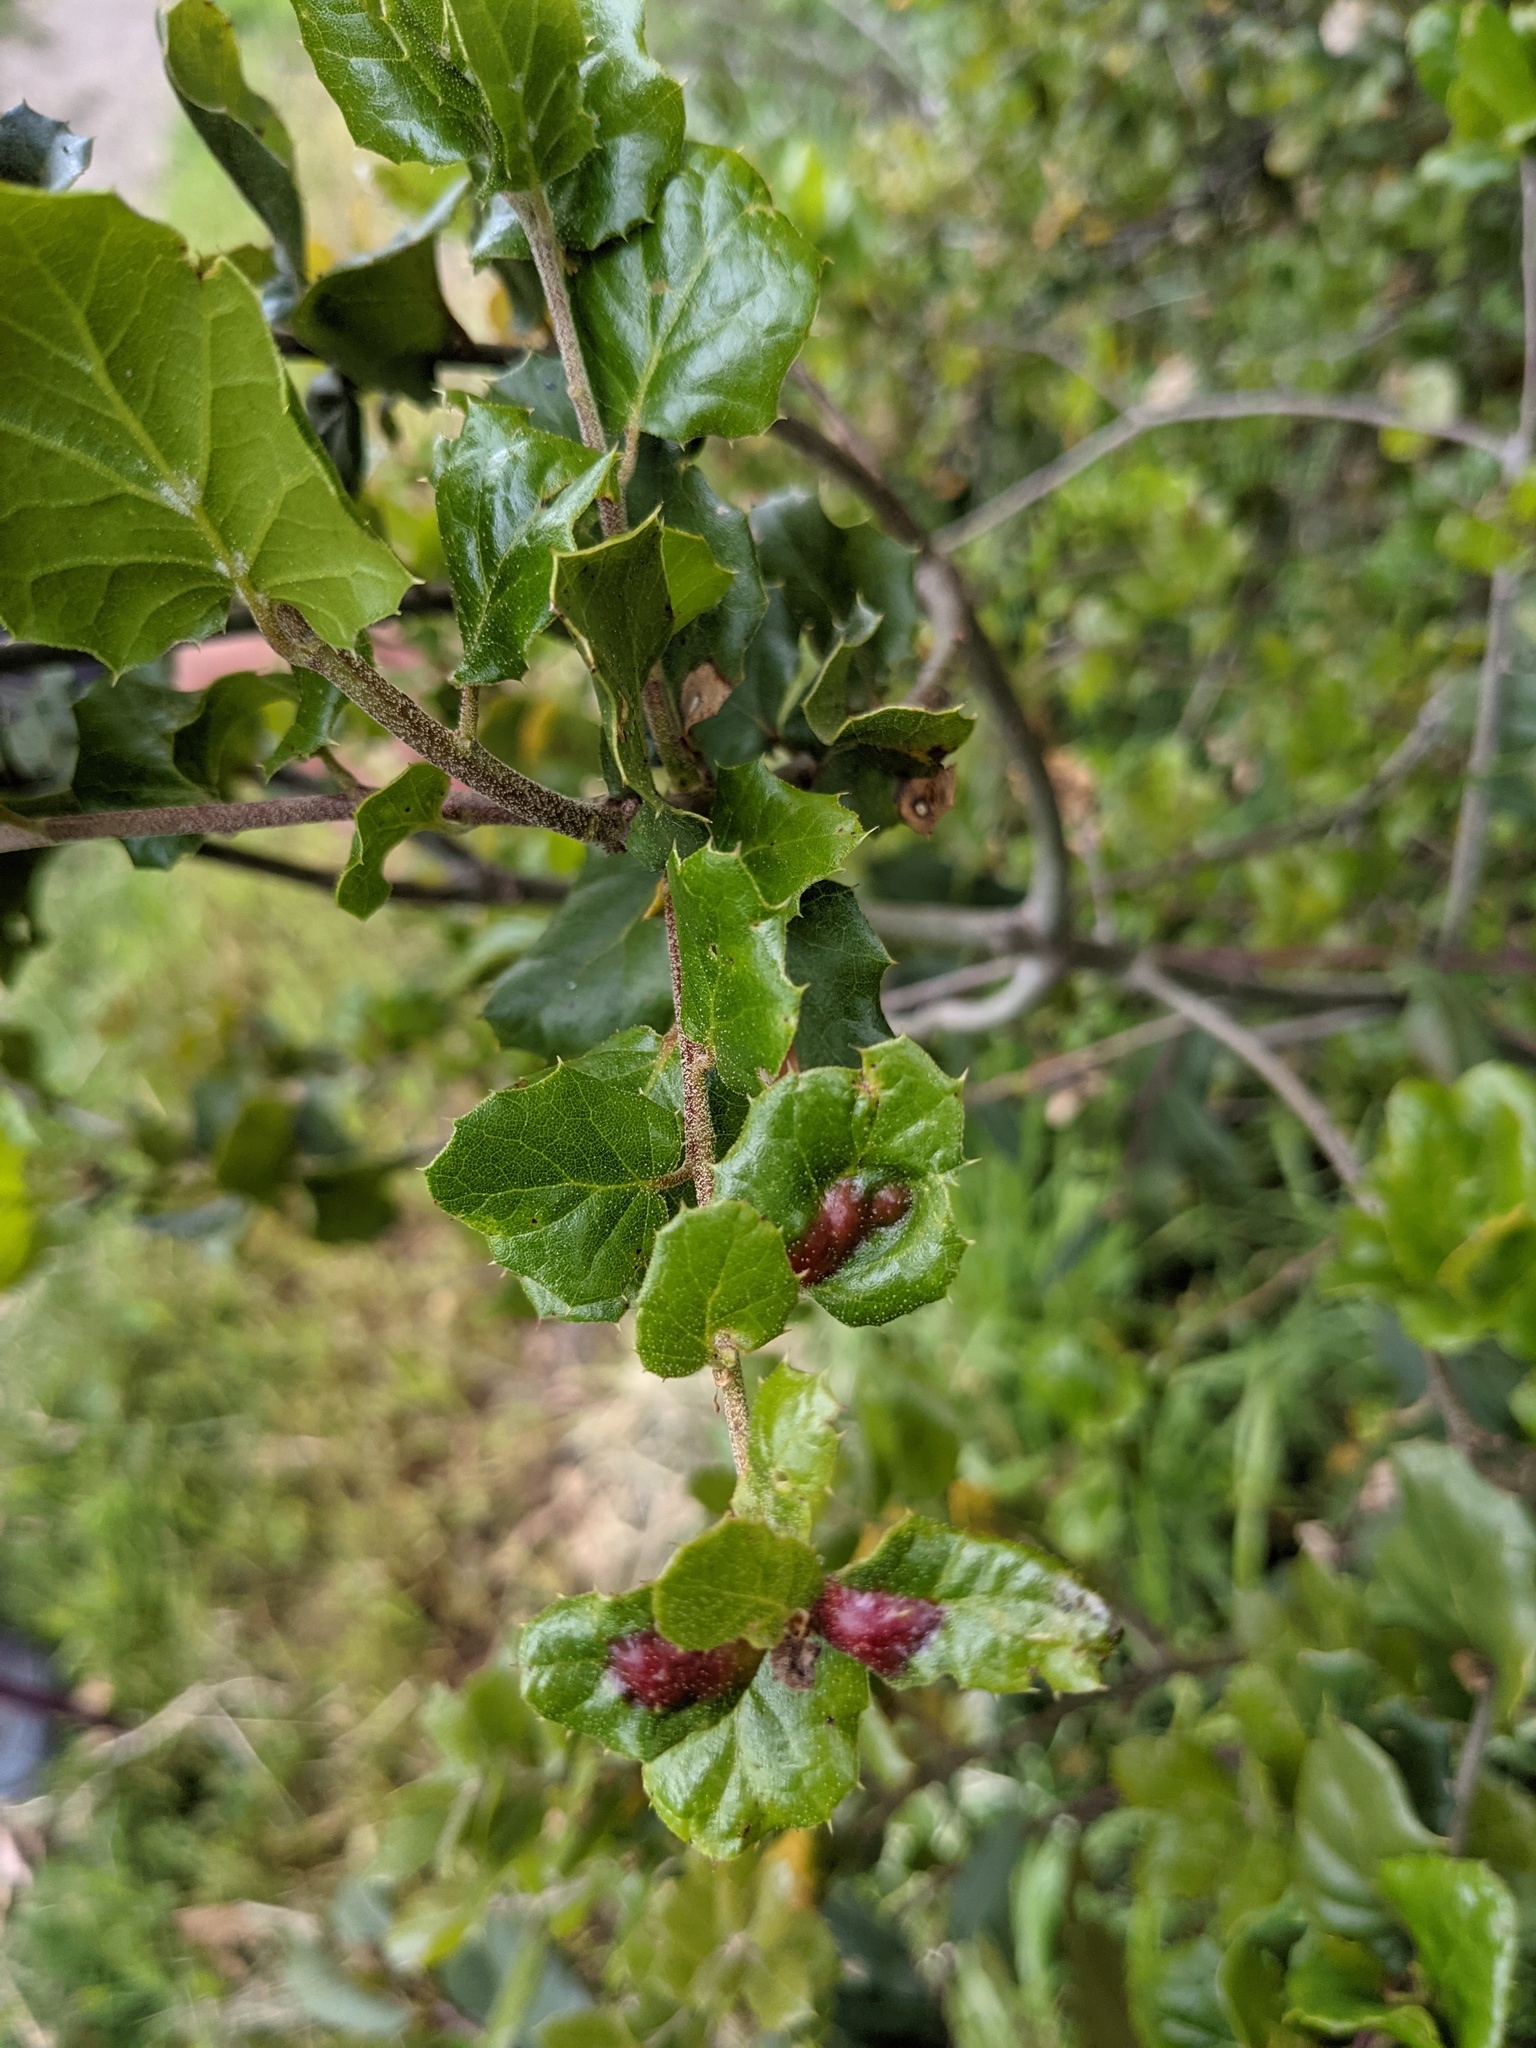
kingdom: Animalia
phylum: Arthropoda
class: Insecta
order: Hymenoptera
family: Cynipidae
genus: Melikaiella
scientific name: Melikaiella
